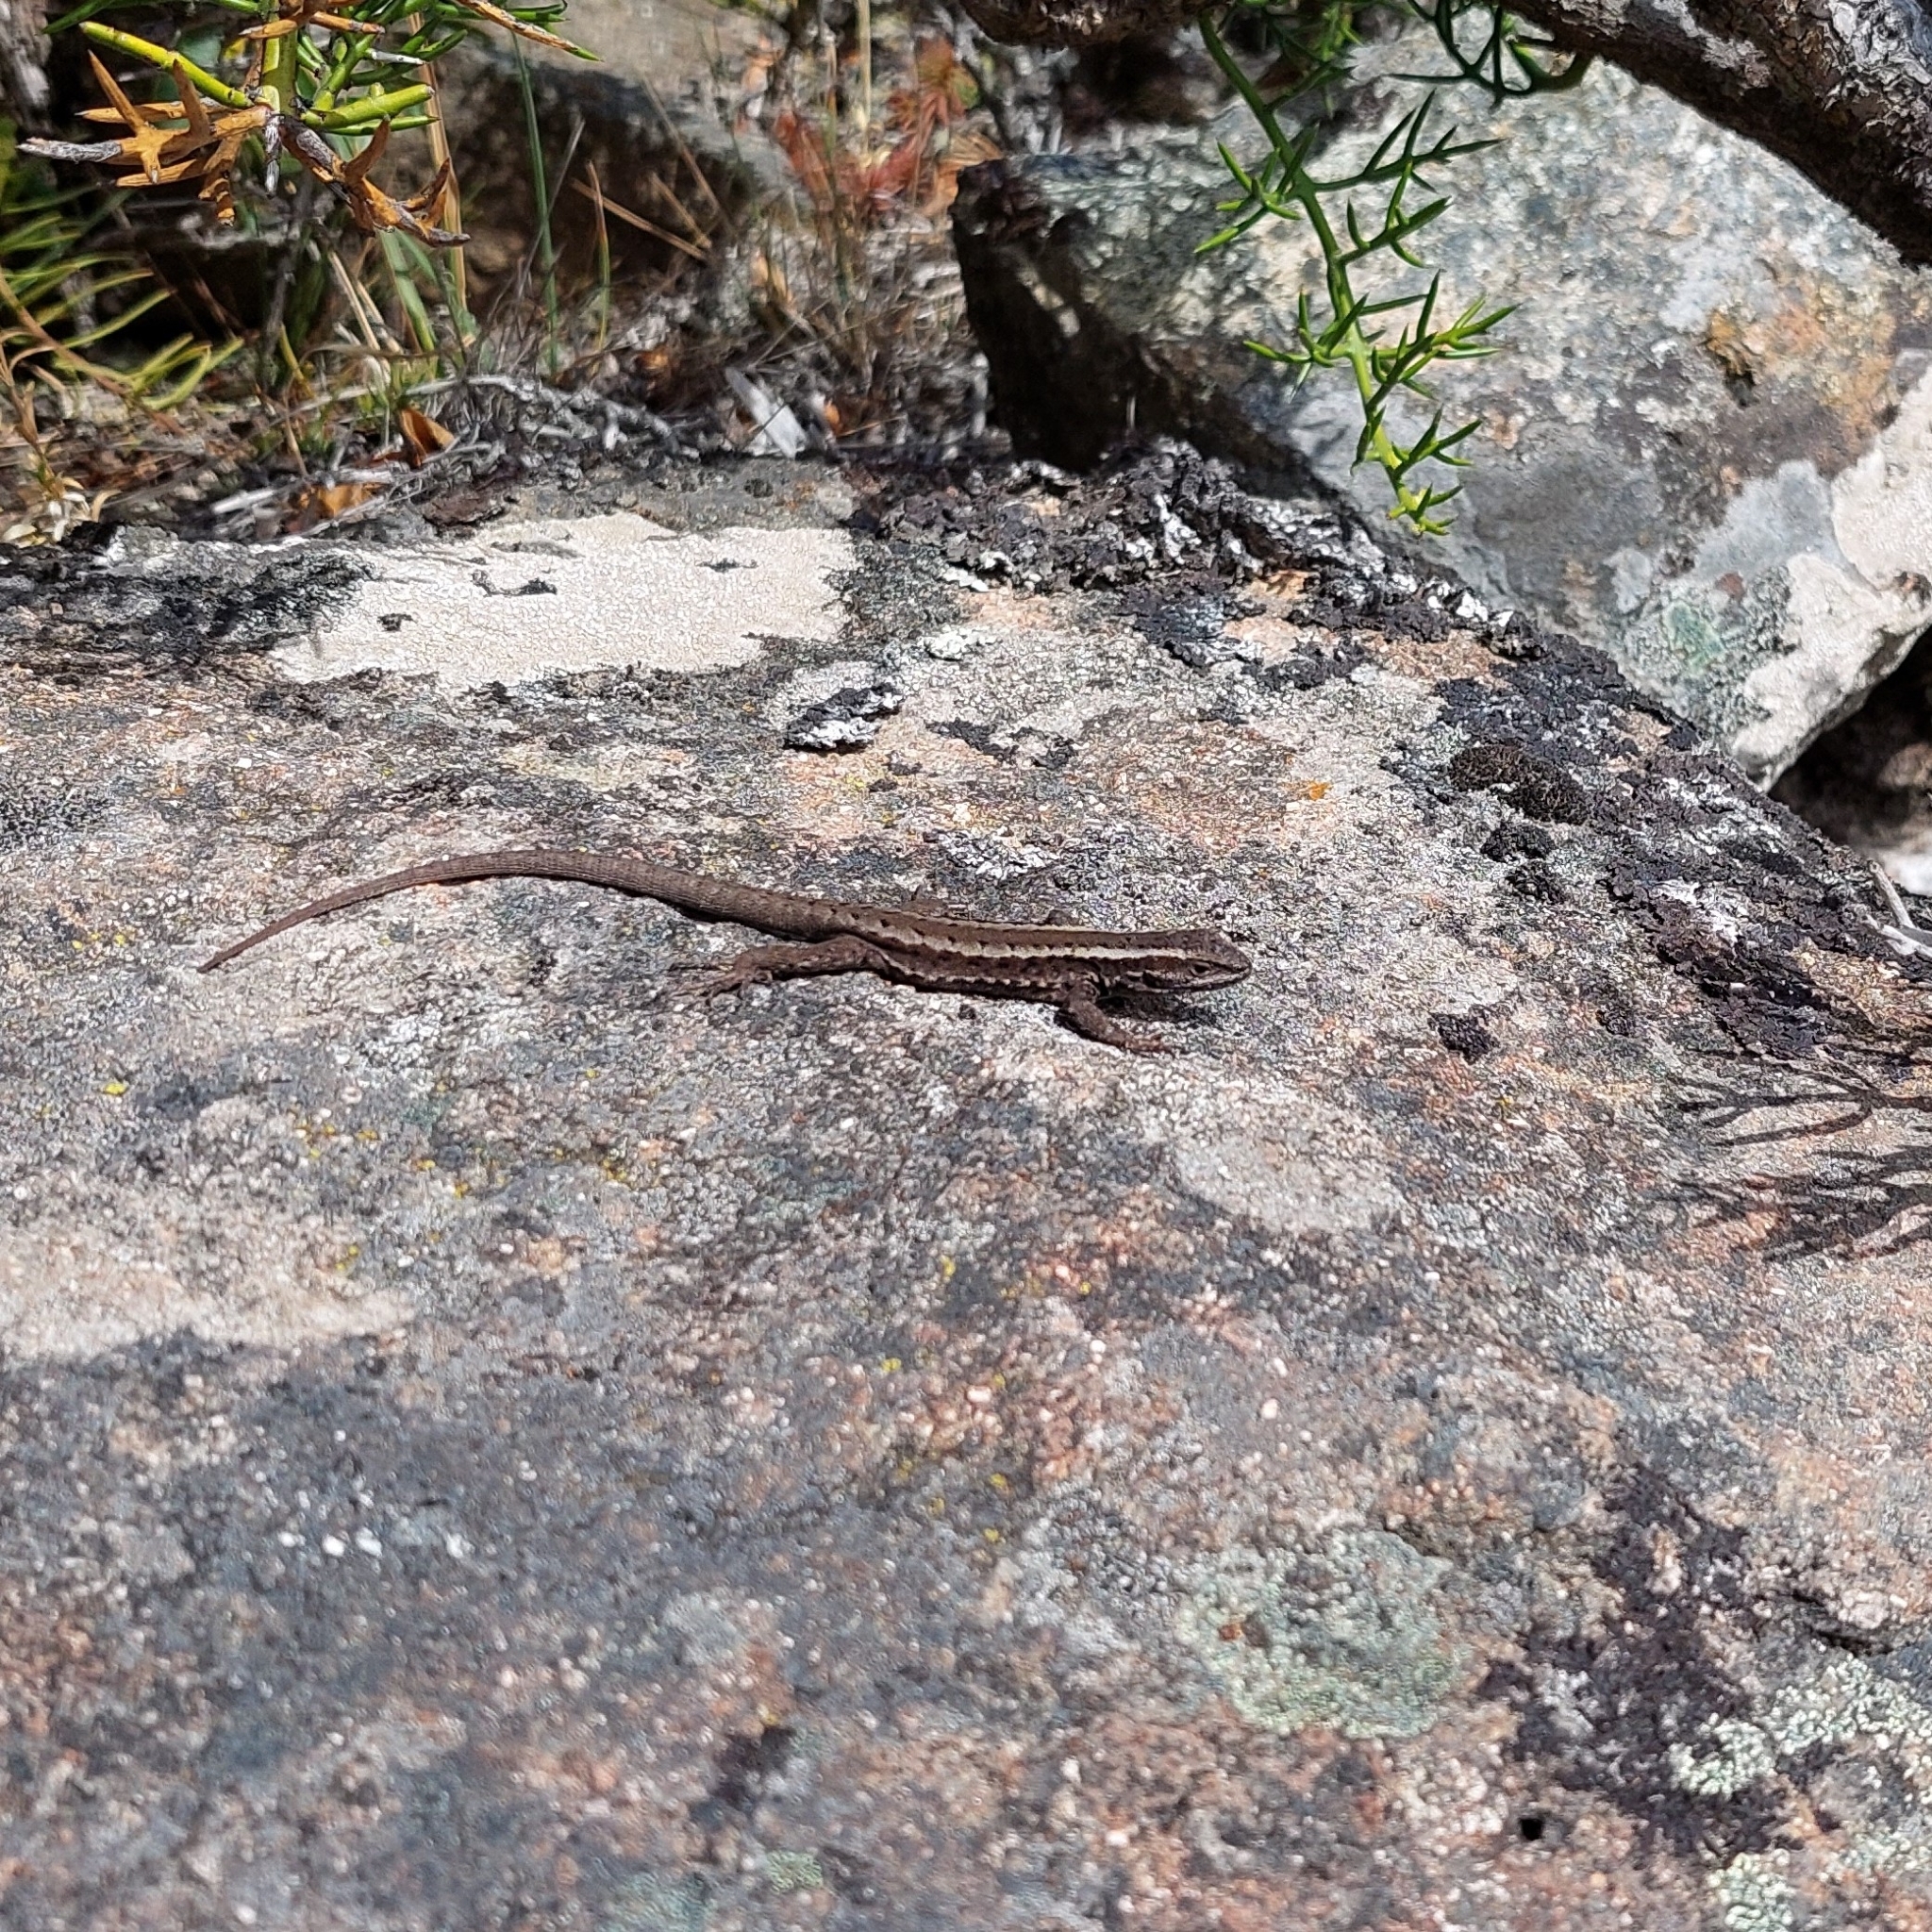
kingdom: Animalia
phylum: Chordata
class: Squamata
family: Liolaemidae
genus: Liolaemus
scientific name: Liolaemus pictus
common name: Painted tree iguana
